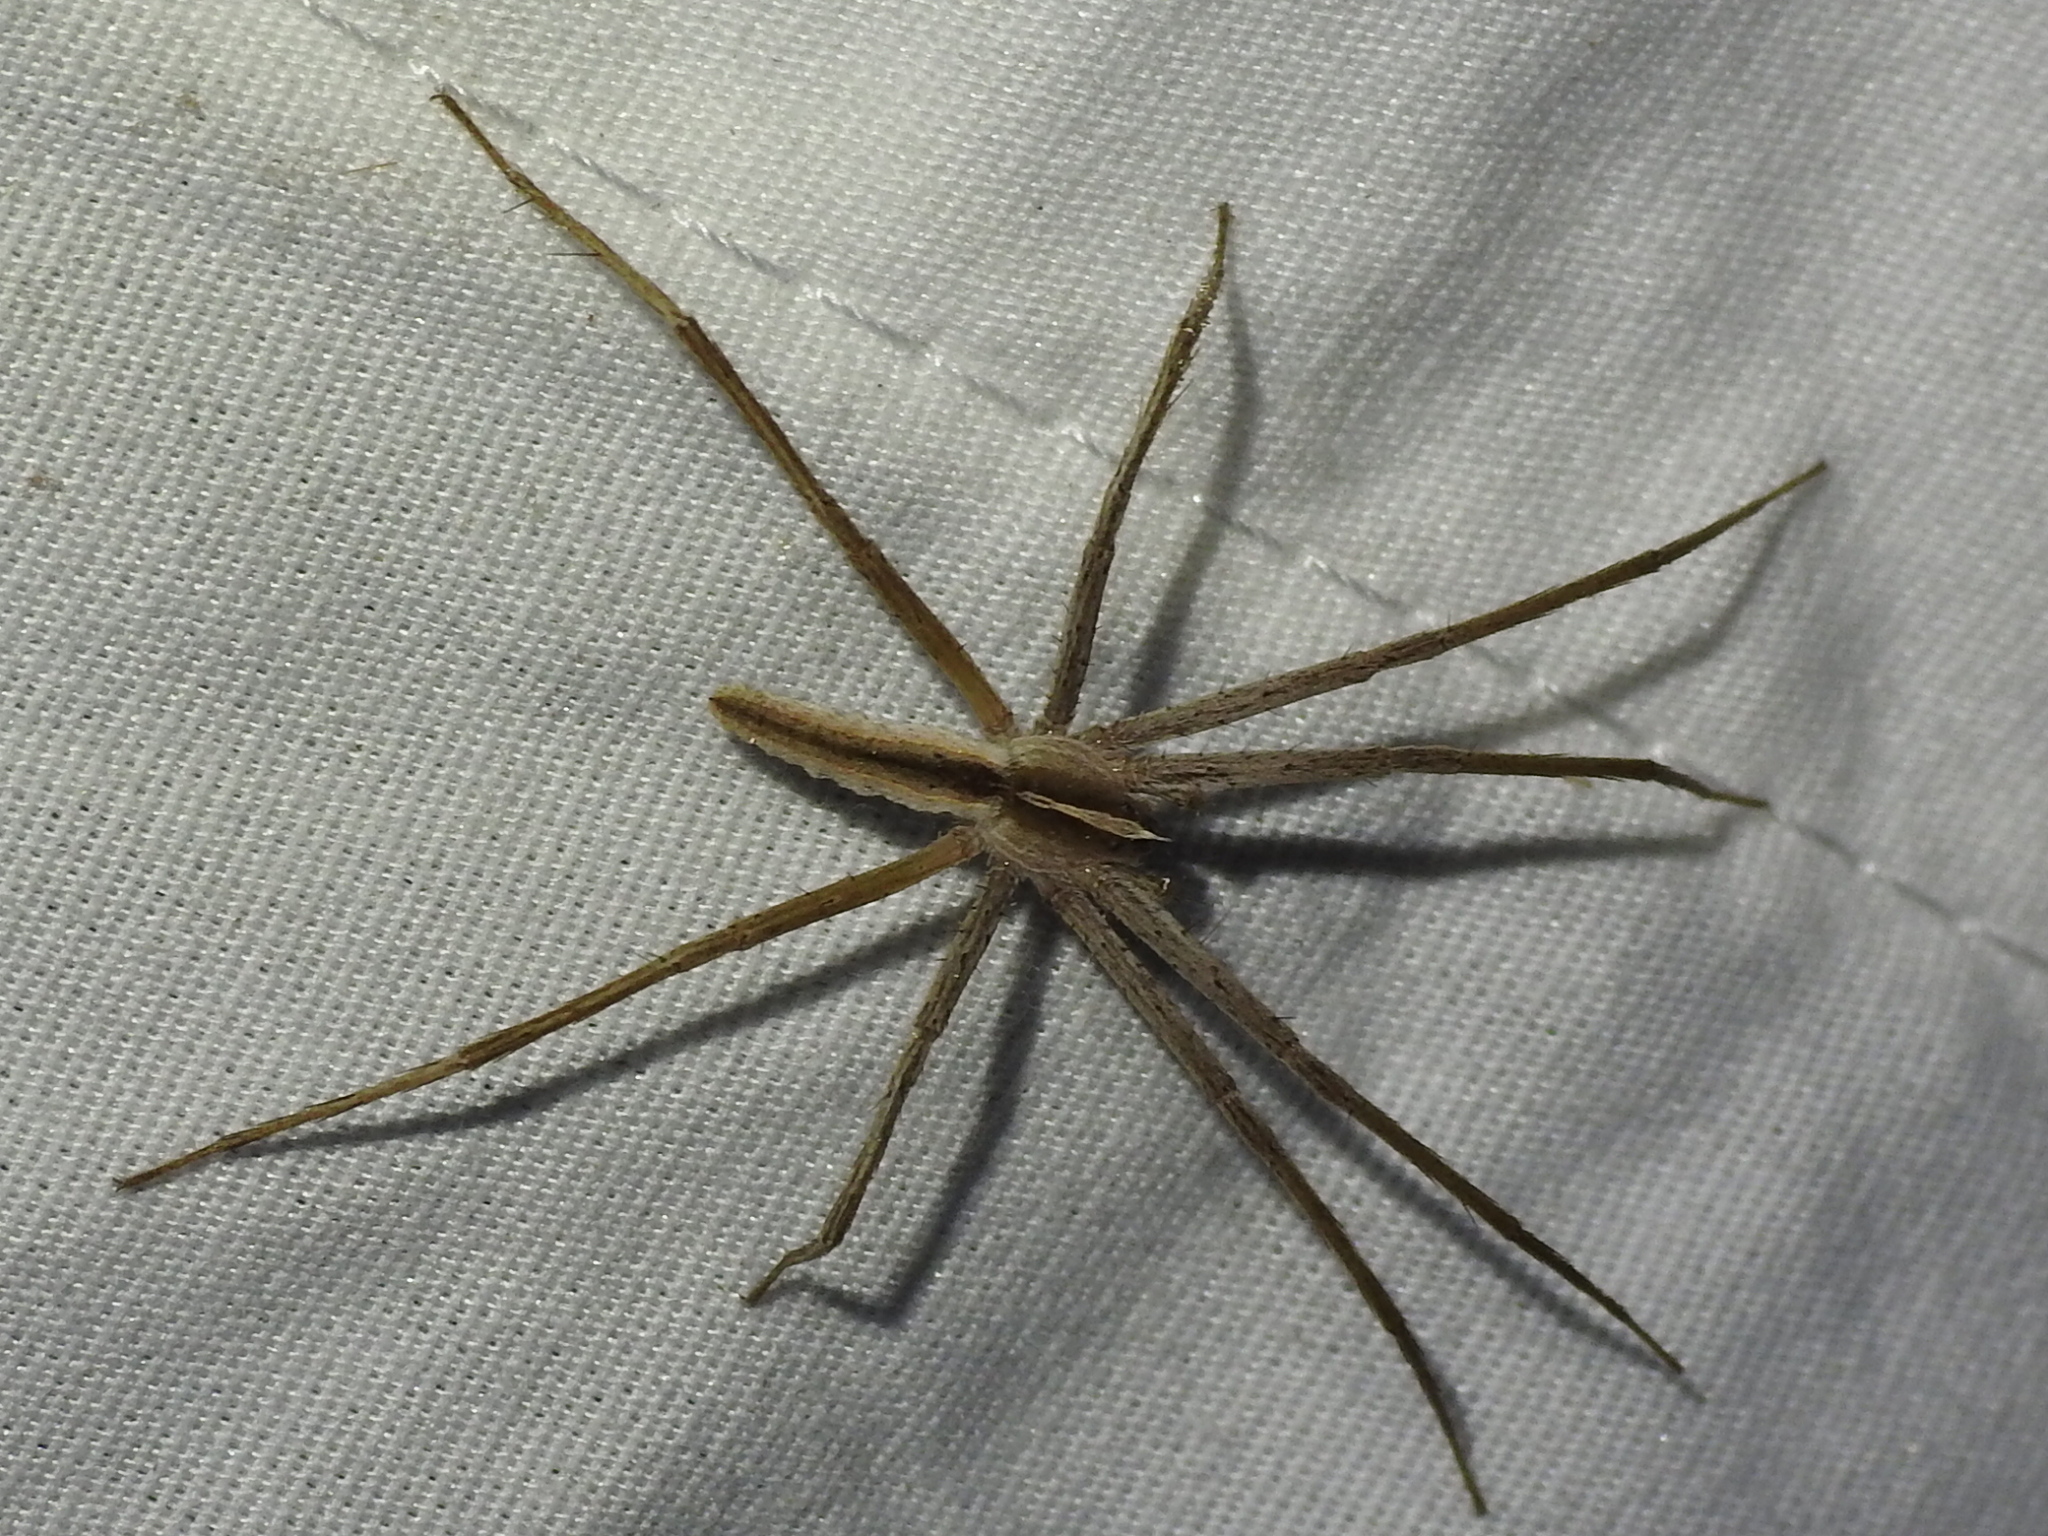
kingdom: Animalia
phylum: Arthropoda
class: Arachnida
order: Araneae
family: Pisauridae
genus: Pisaurina
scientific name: Pisaurina dubia
